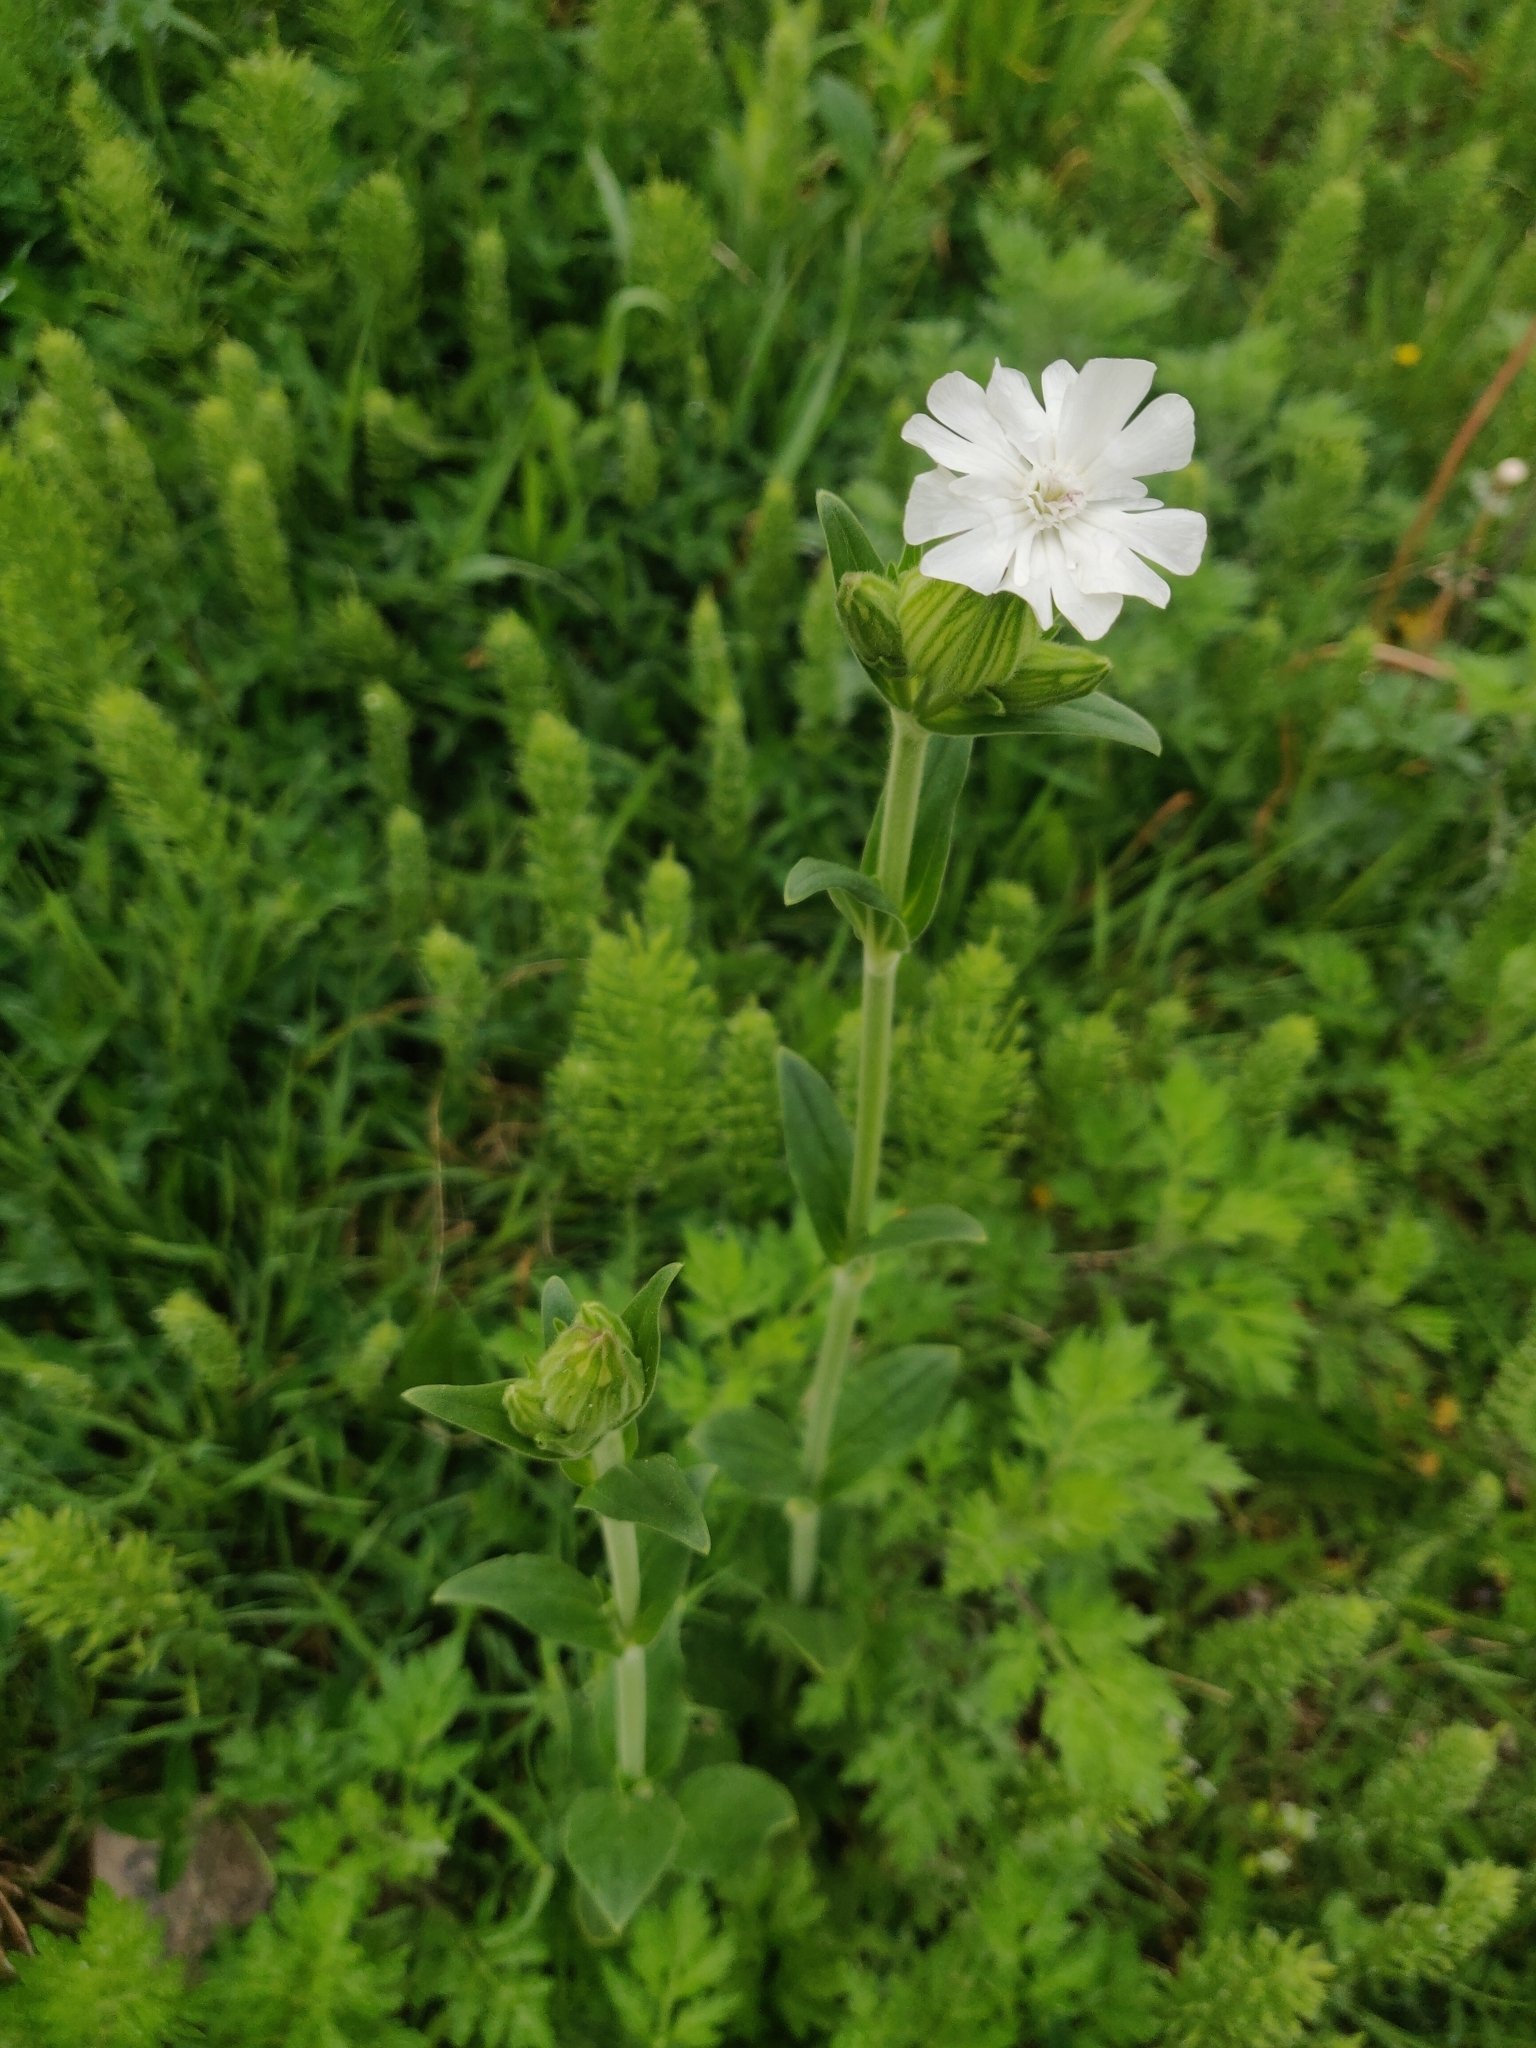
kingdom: Plantae
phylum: Tracheophyta
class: Magnoliopsida
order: Caryophyllales
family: Caryophyllaceae
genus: Silene
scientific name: Silene latifolia
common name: White campion
